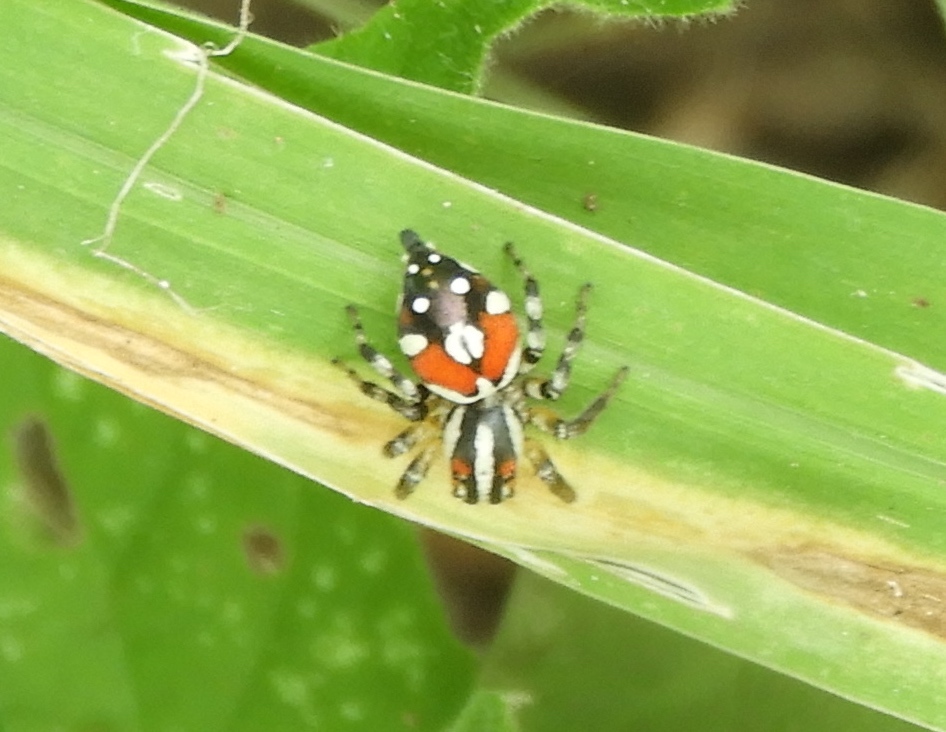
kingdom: Animalia
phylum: Arthropoda
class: Arachnida
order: Araneae
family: Salticidae
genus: Nycerella
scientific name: Nycerella delecta
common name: Jumping spiders
